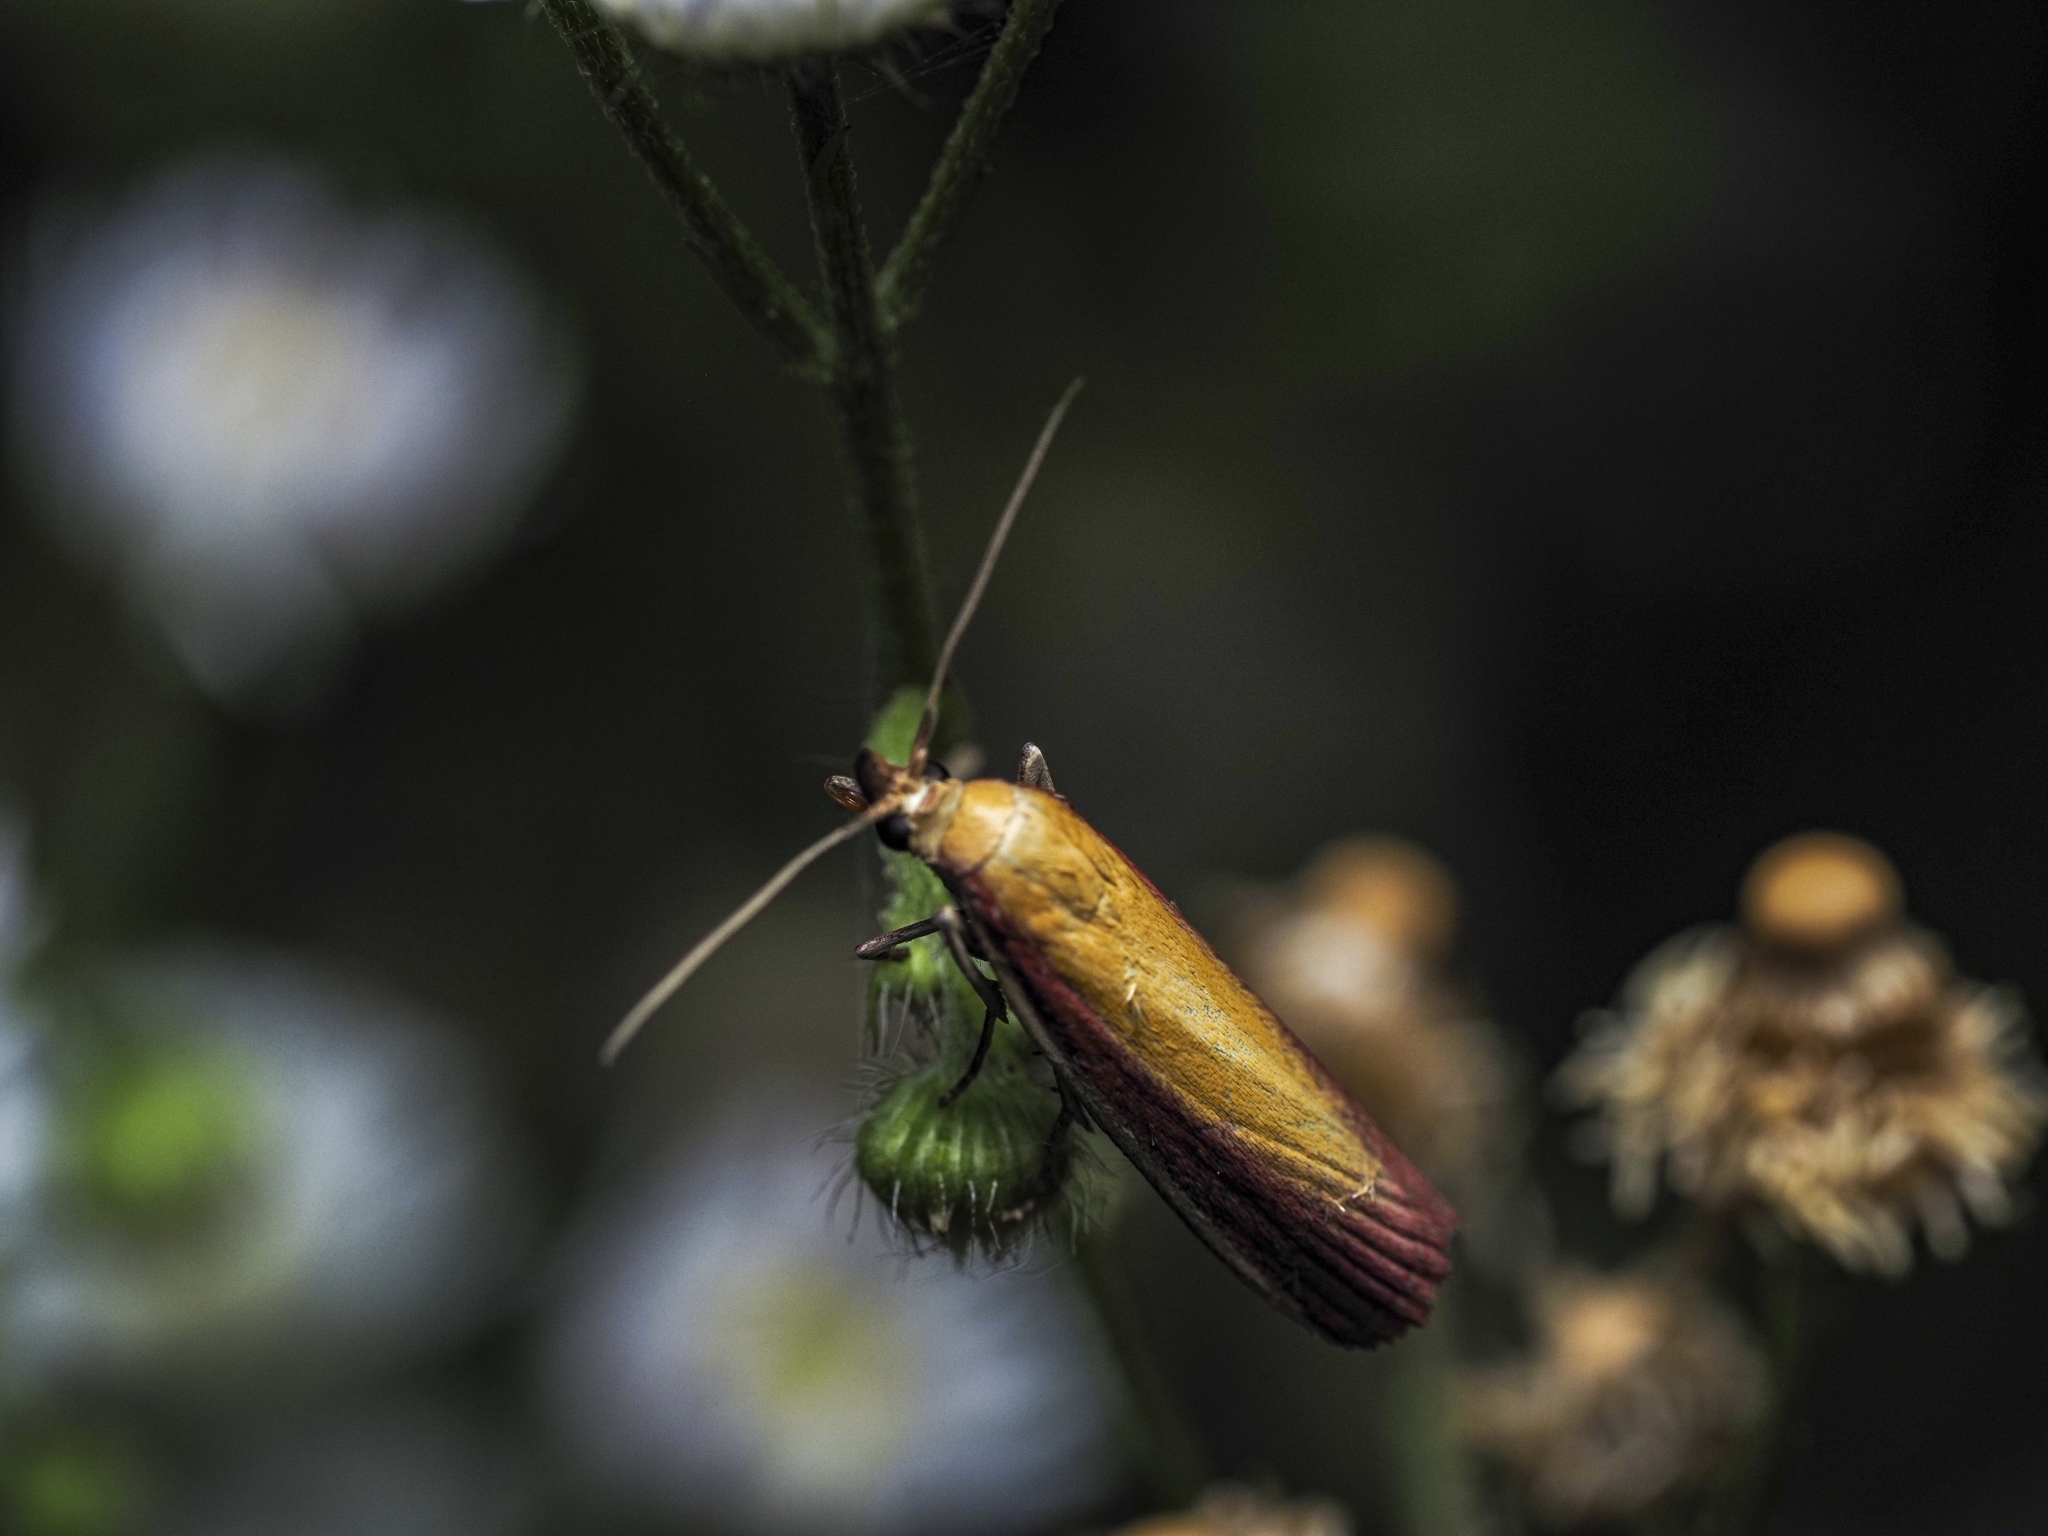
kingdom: Animalia
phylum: Arthropoda
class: Insecta
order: Lepidoptera
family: Pyralidae
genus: Oncocera
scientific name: Oncocera semirubella
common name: Rosy-striped knot-horn
